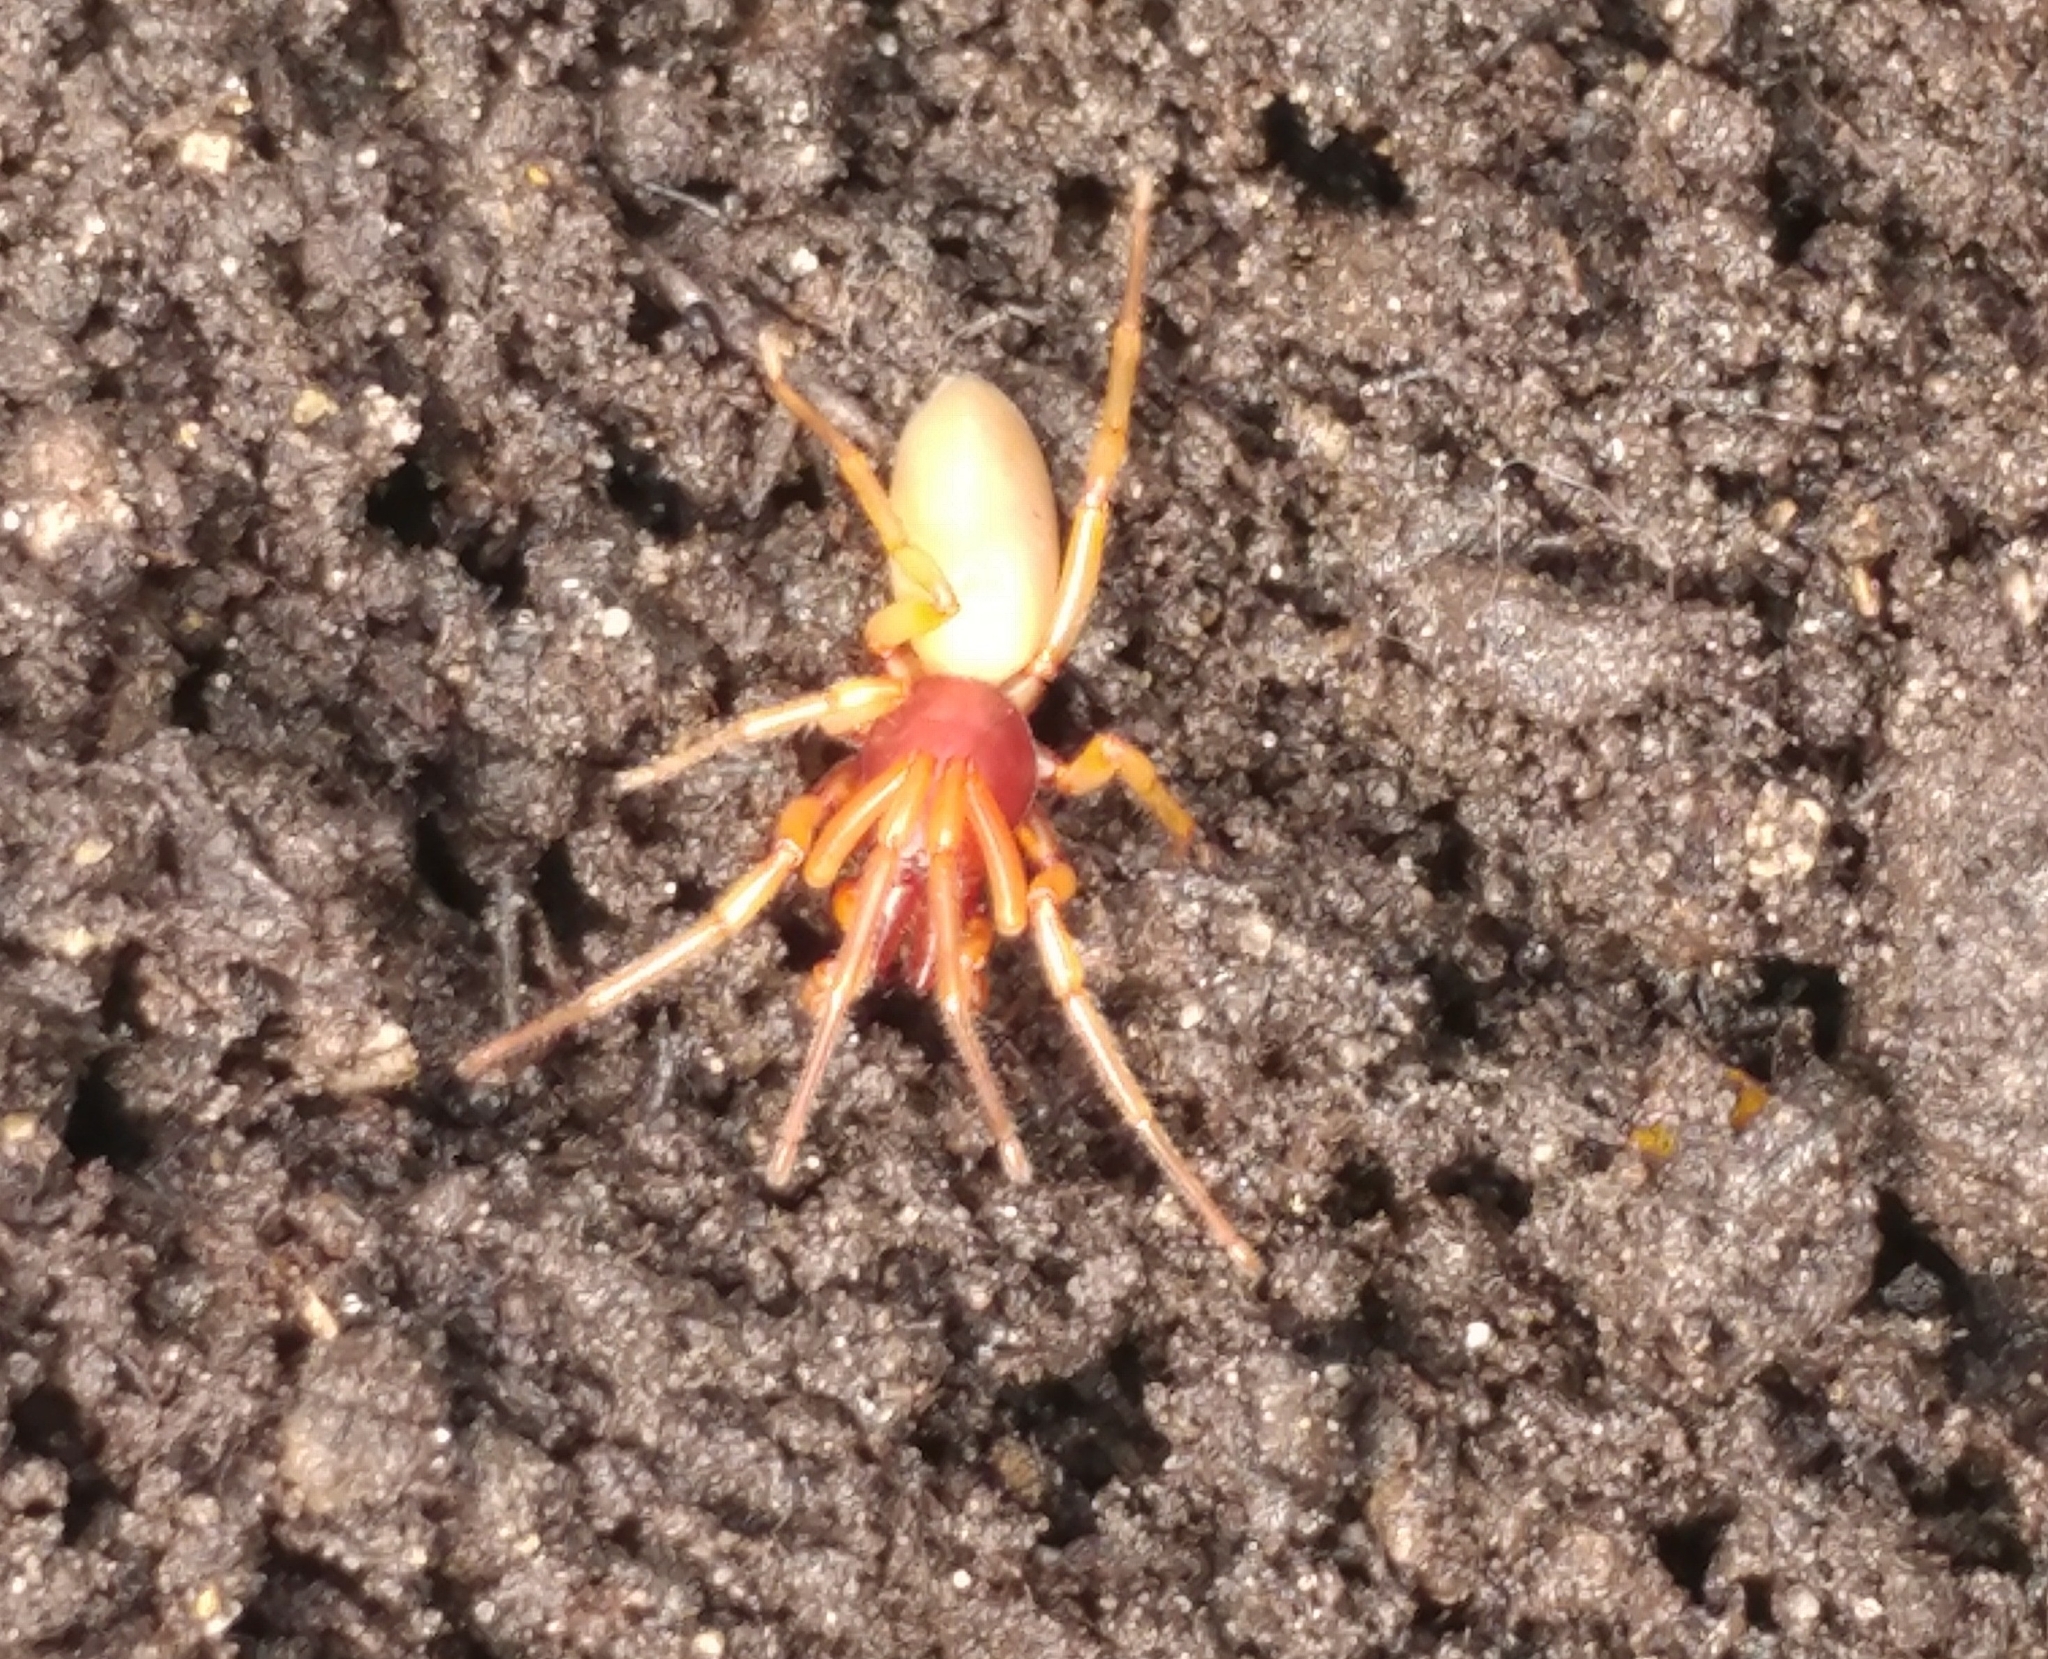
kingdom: Animalia
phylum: Arthropoda
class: Arachnida
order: Araneae
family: Dysderidae
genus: Dysdera
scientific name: Dysdera crocata
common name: Woodlouse spider
